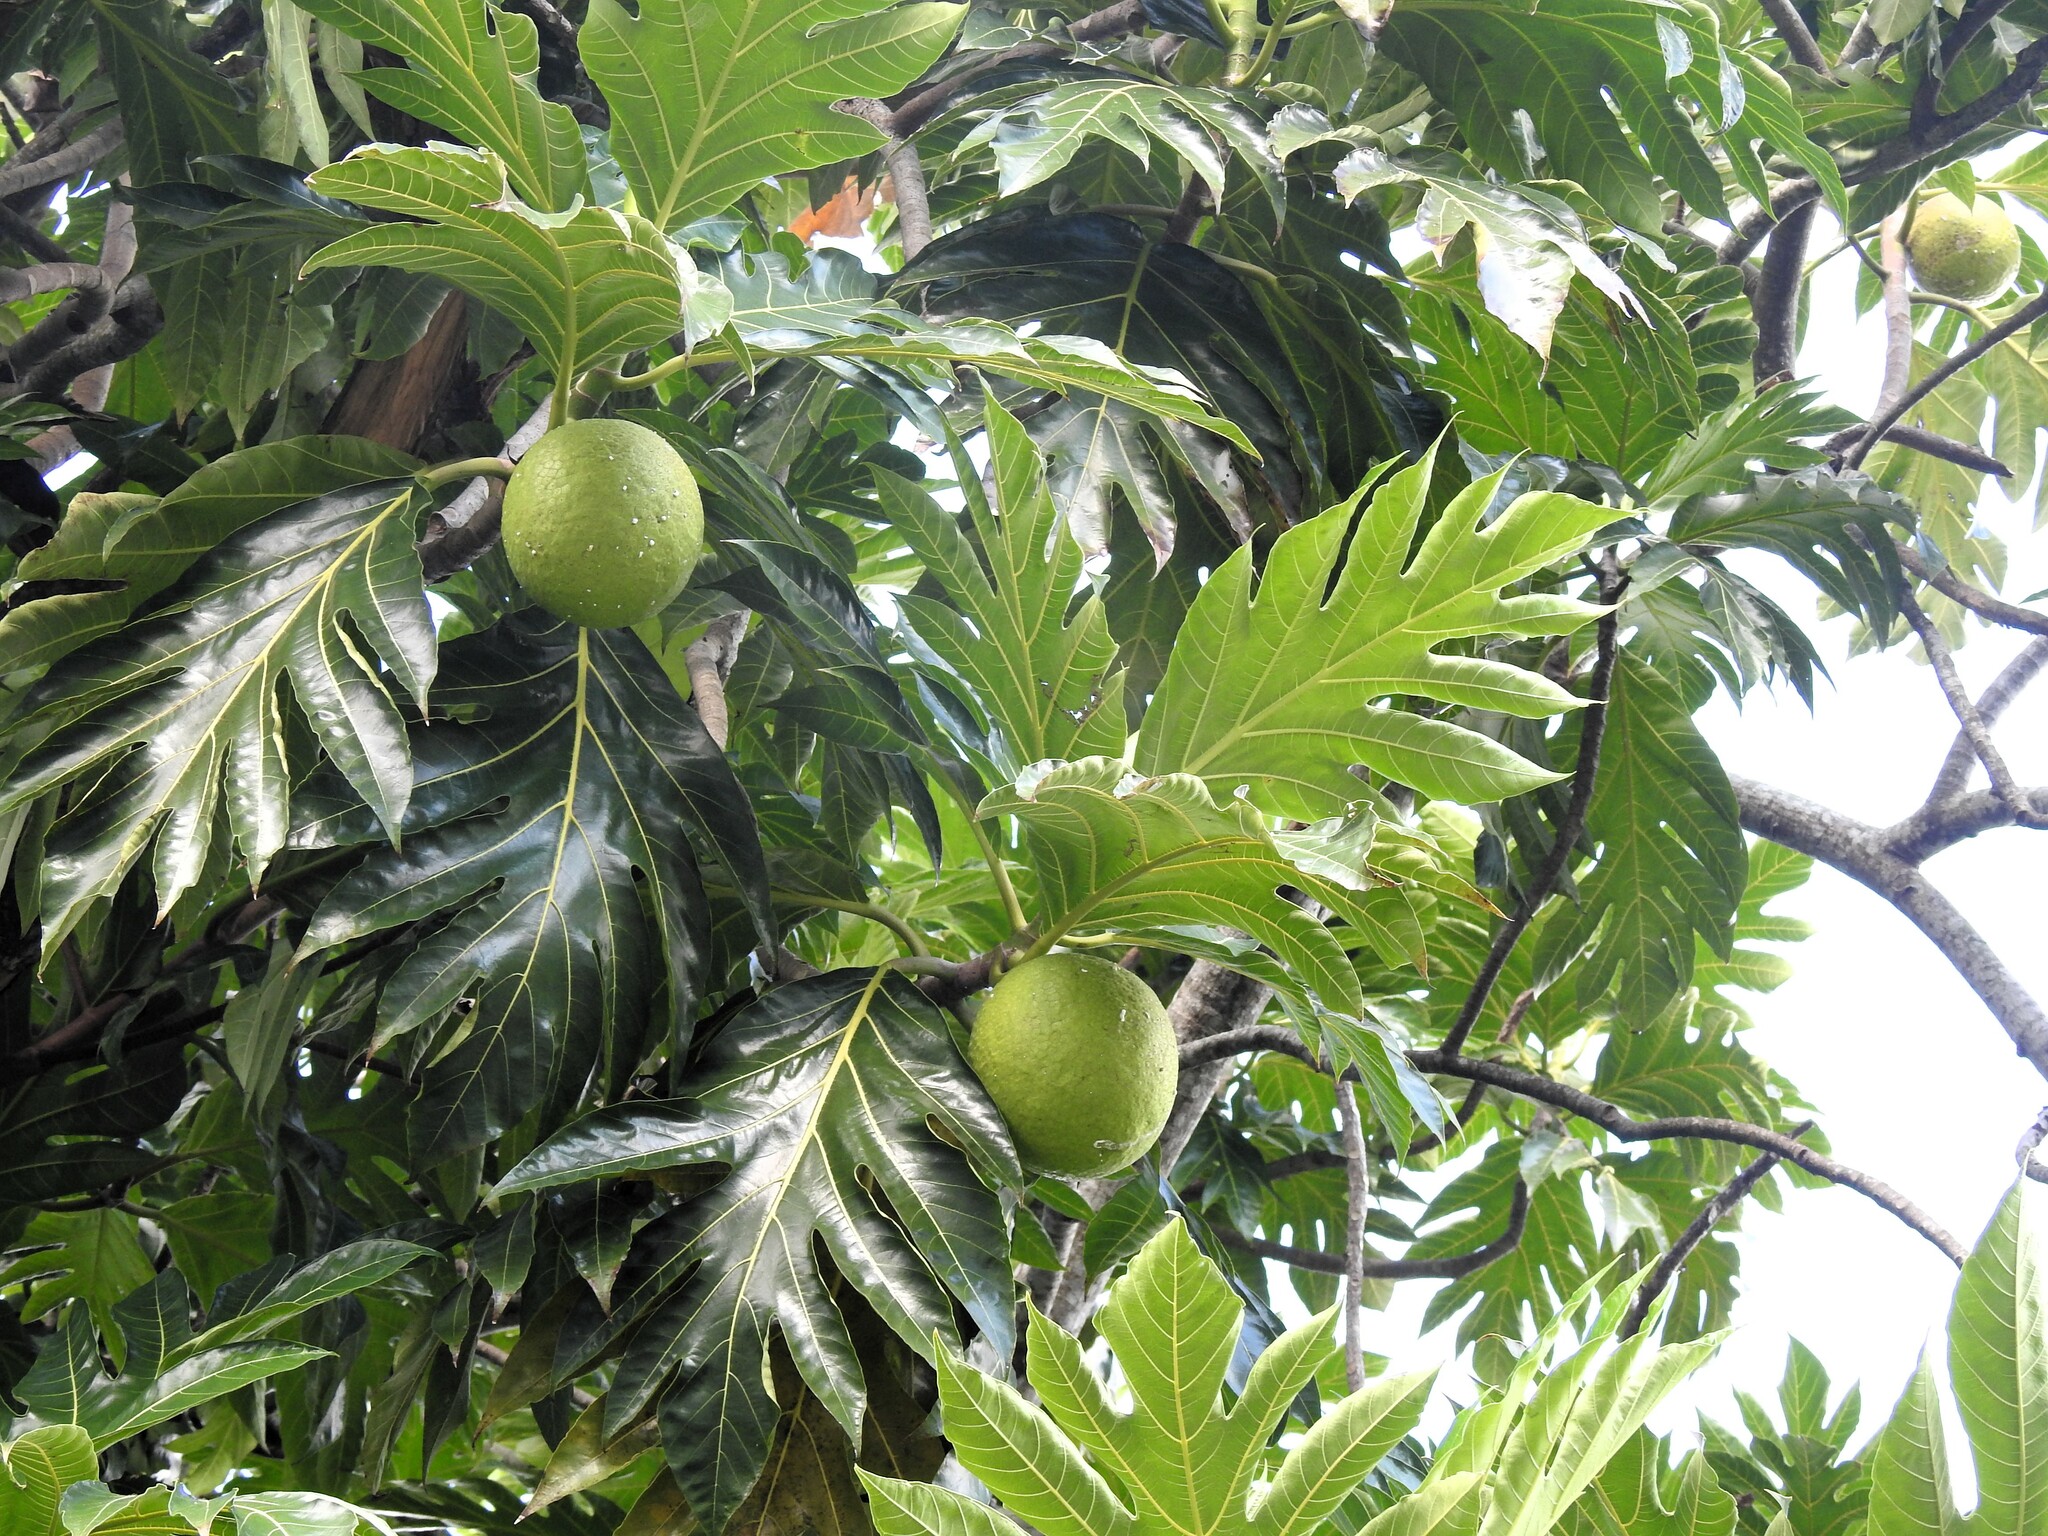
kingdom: Plantae
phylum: Tracheophyta
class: Magnoliopsida
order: Rosales
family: Moraceae
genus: Artocarpus
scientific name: Artocarpus altilis
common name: Breadfruit
